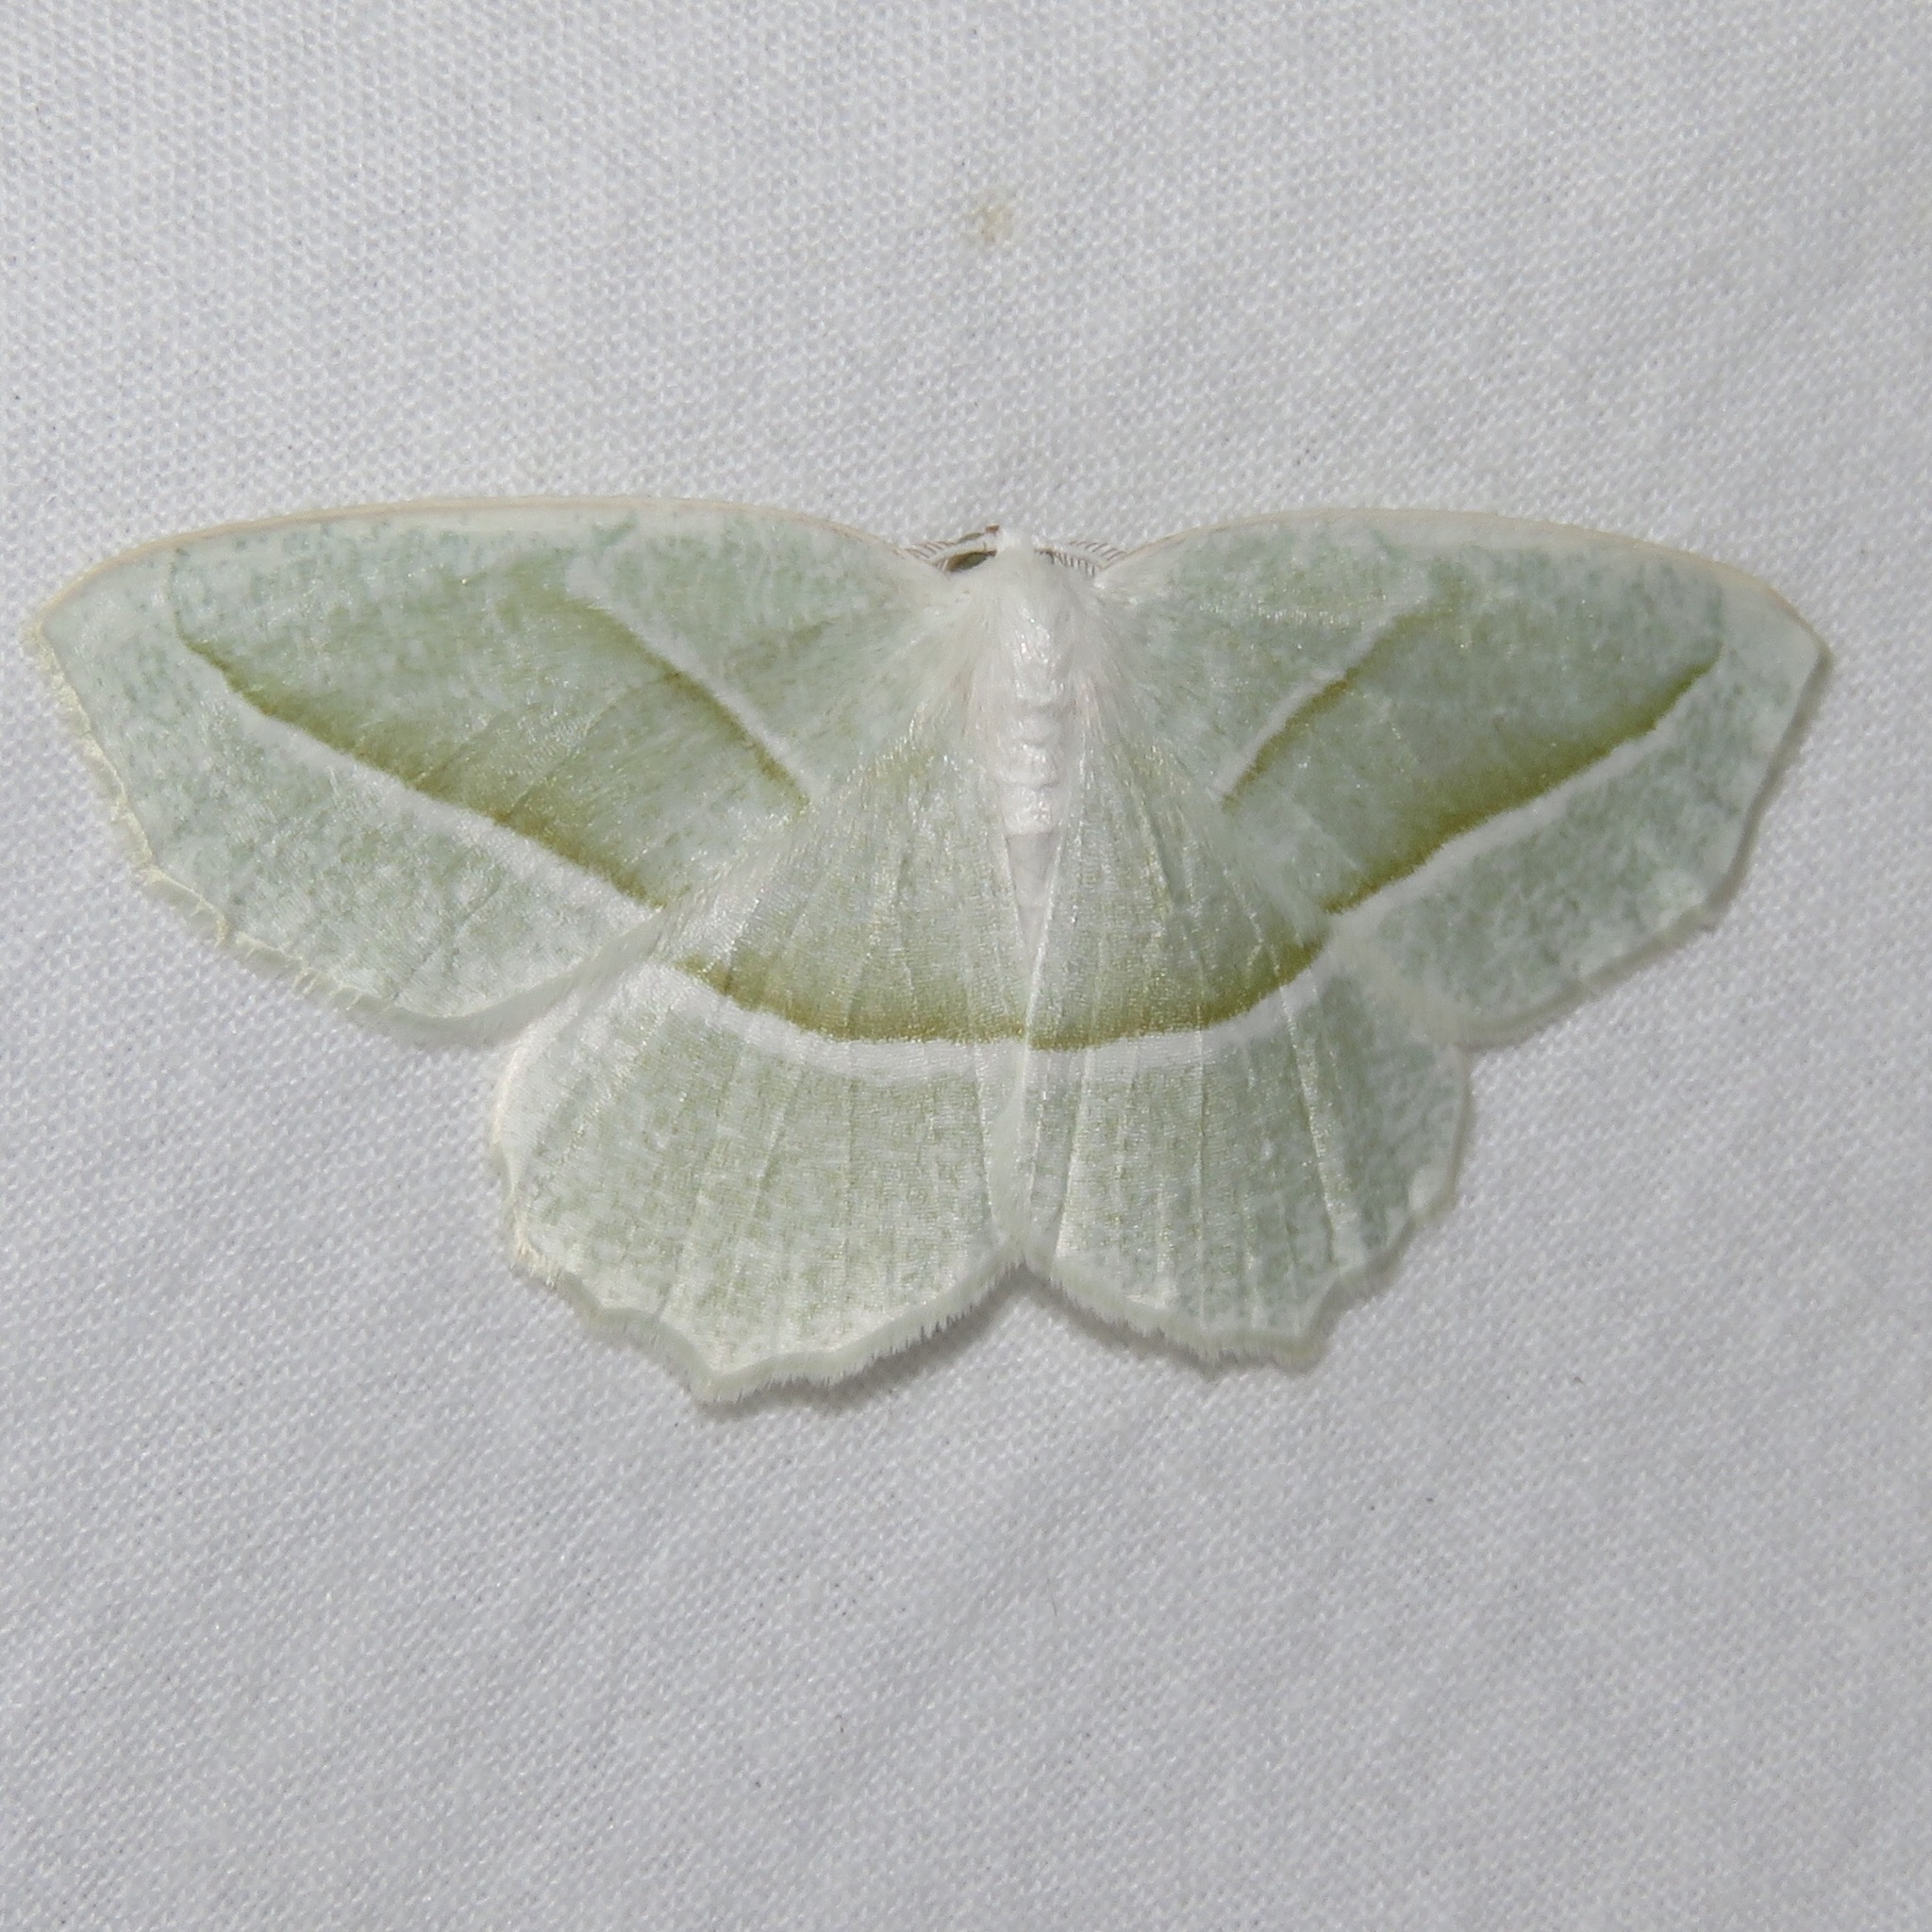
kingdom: Animalia
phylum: Arthropoda
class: Insecta
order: Lepidoptera
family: Geometridae
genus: Campaea
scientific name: Campaea perlata
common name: Fringed looper
